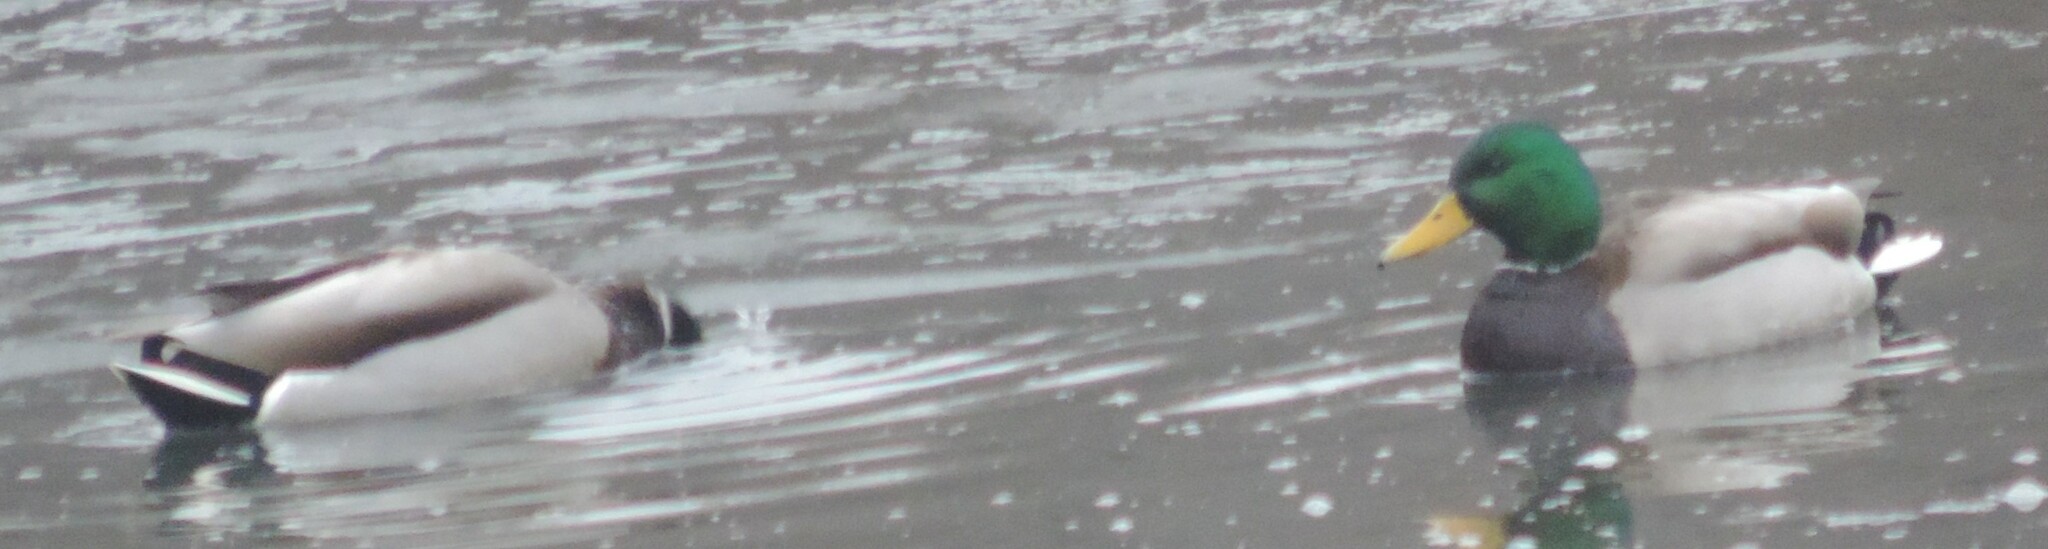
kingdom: Animalia
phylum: Chordata
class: Aves
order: Anseriformes
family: Anatidae
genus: Anas
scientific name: Anas platyrhynchos
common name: Mallard
